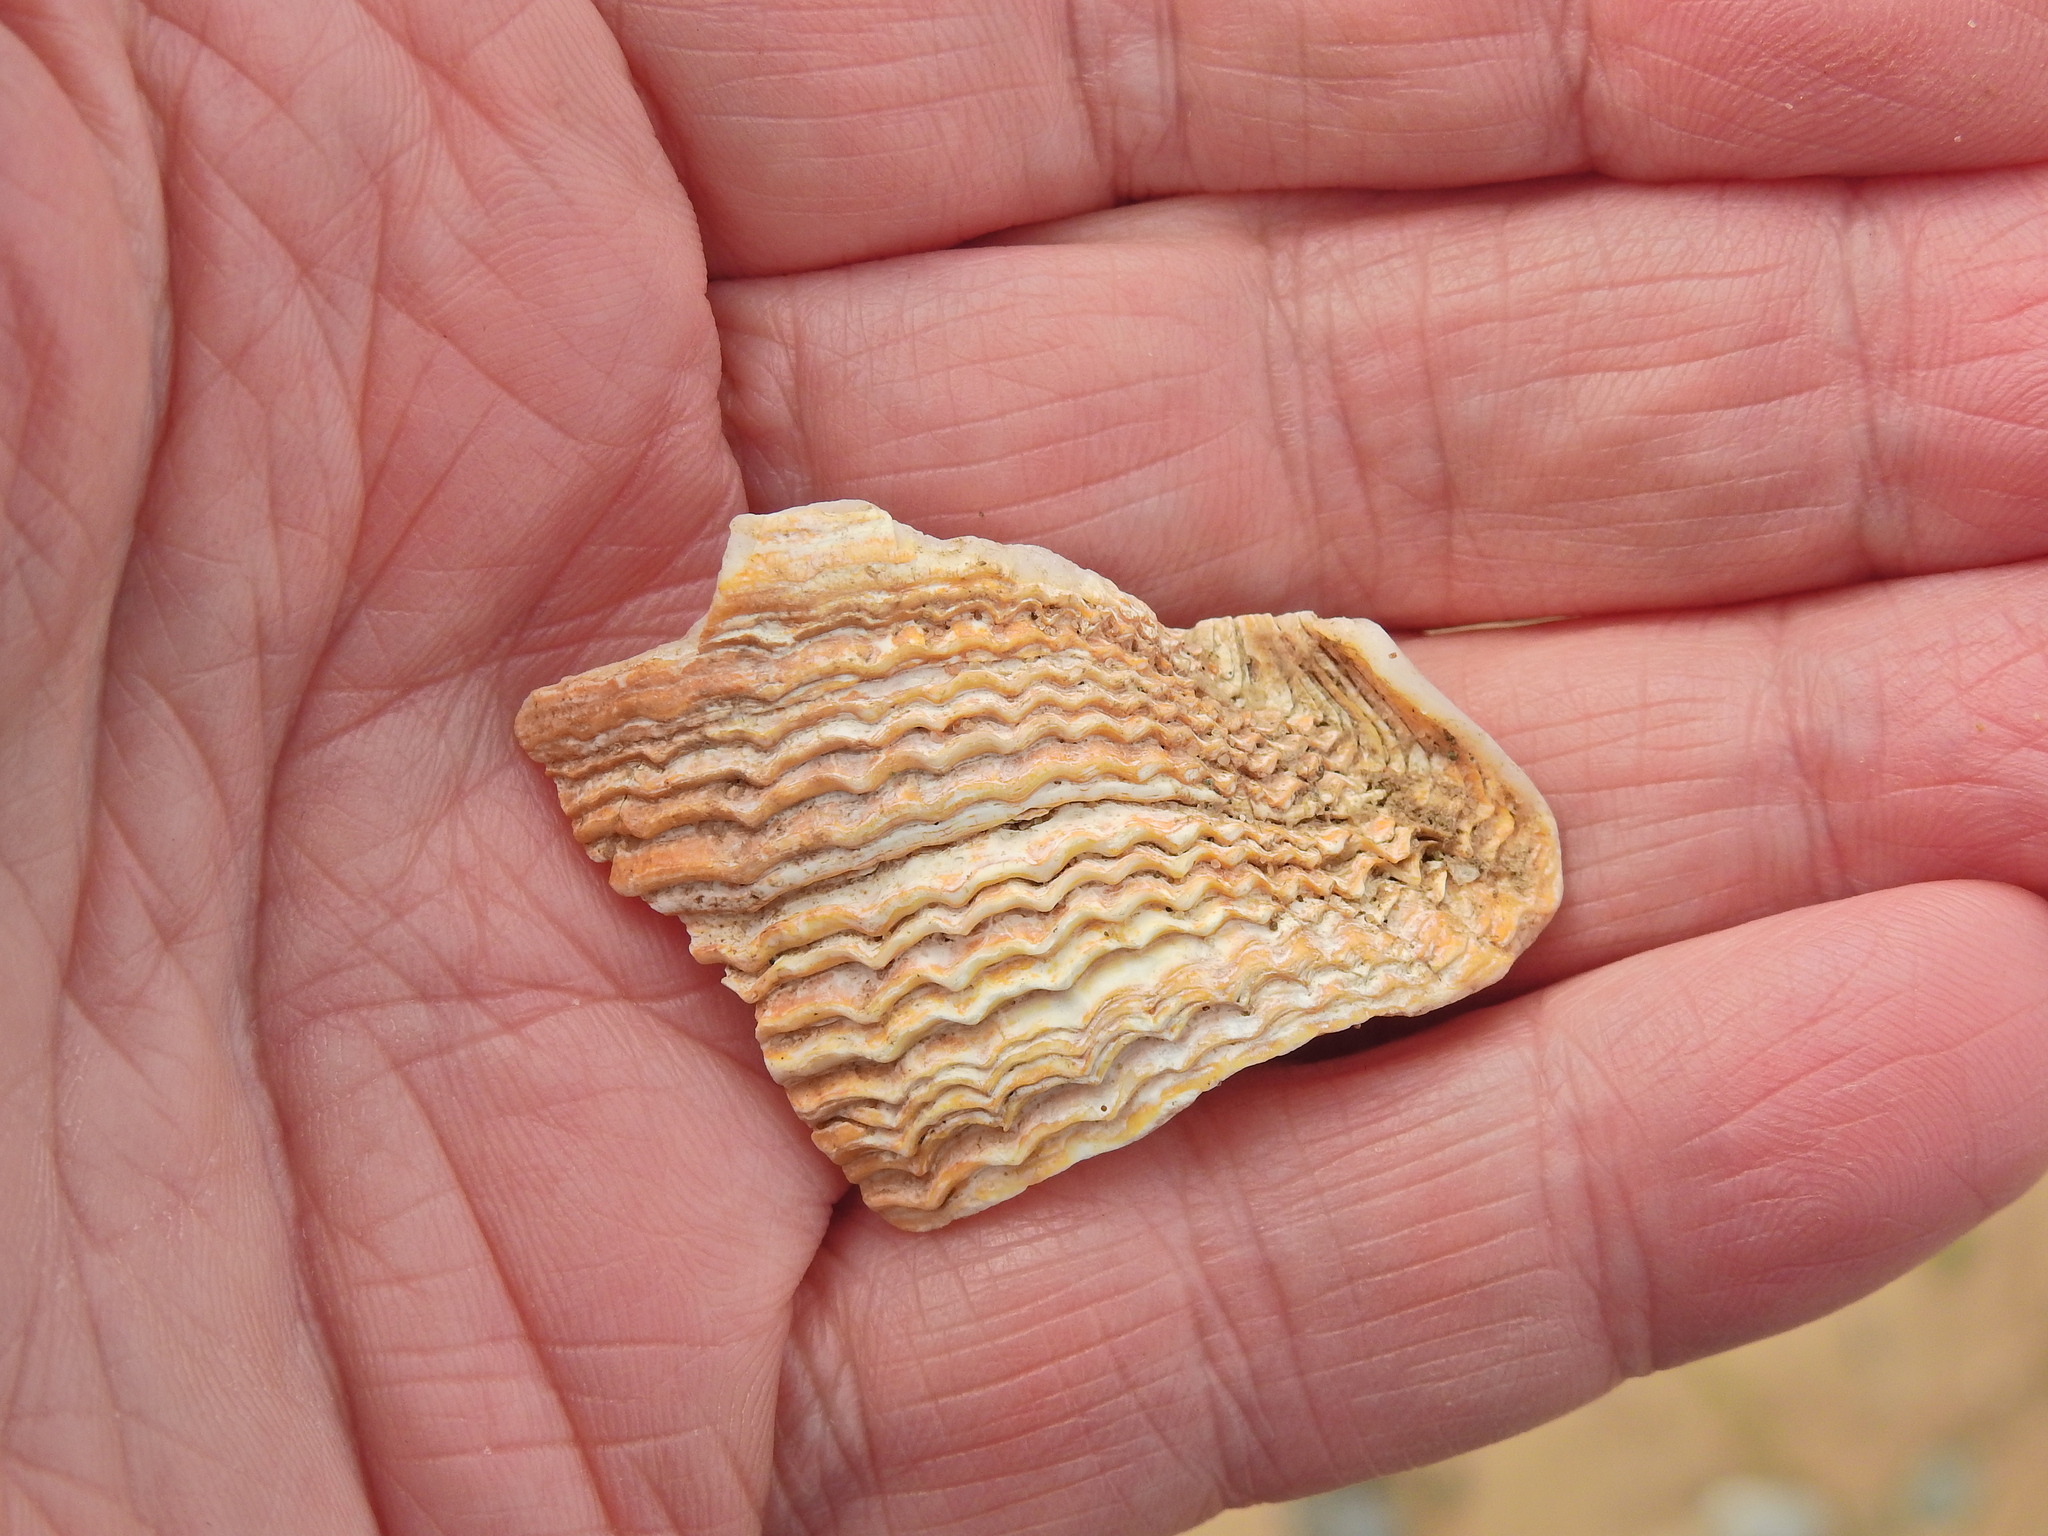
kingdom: Animalia
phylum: Mollusca
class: Bivalvia
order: Myida
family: Pholadidae
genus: Zirfaea
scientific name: Zirfaea crispata
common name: Oval piddock
